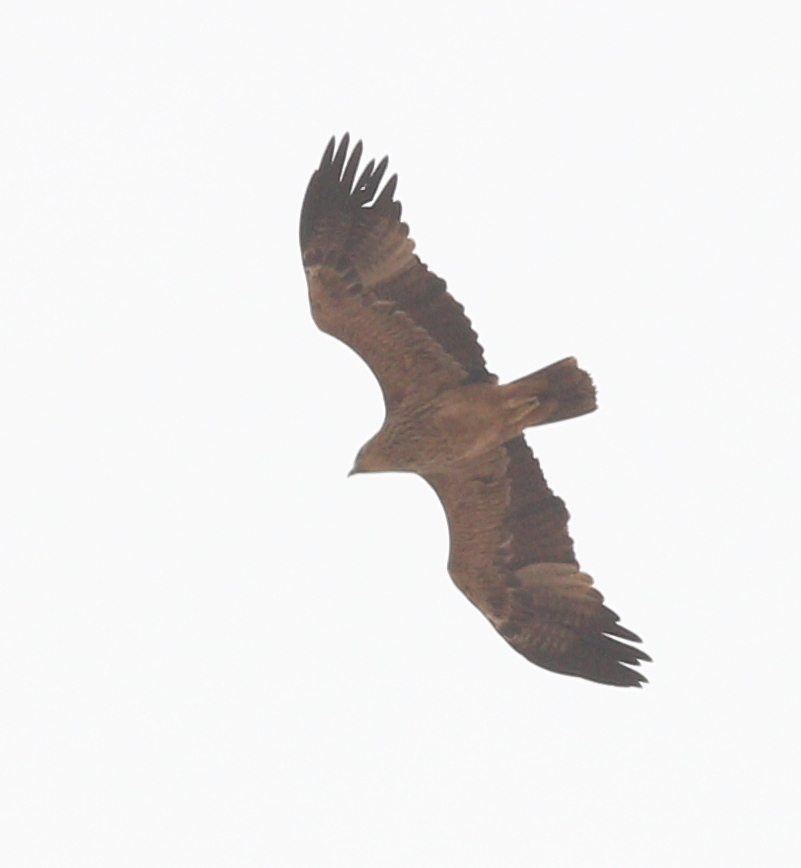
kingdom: Animalia
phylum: Chordata
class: Aves
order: Accipitriformes
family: Accipitridae
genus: Aquila
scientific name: Aquila pomarina
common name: Lesser spotted eagle
